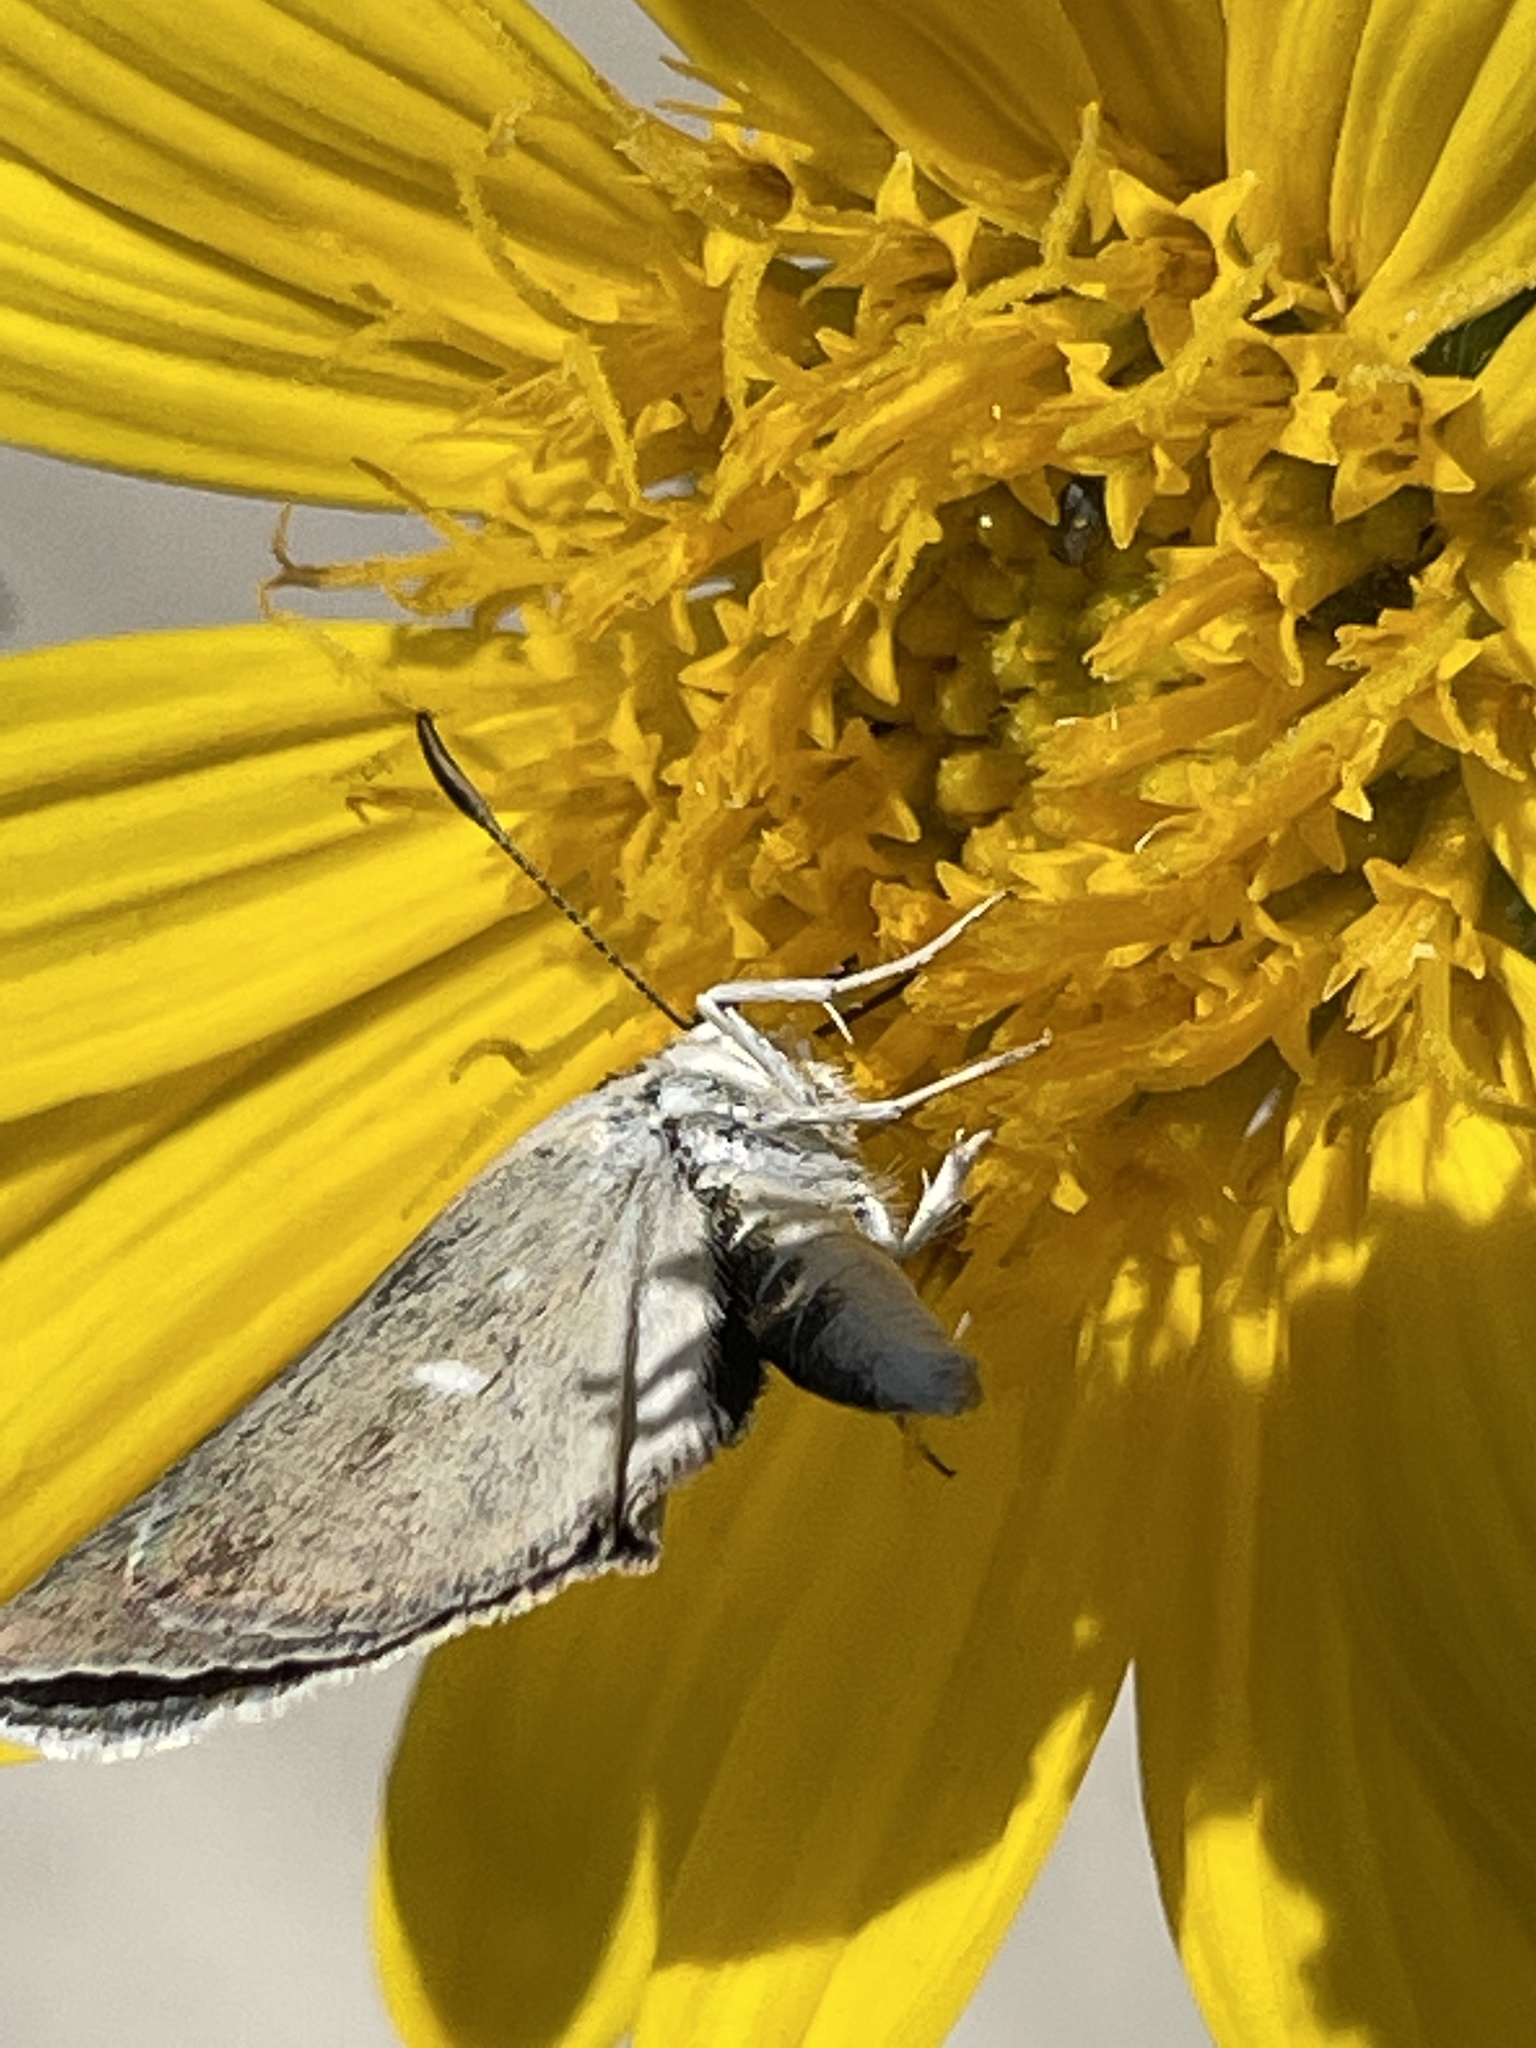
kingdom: Animalia
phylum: Arthropoda
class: Insecta
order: Lepidoptera
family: Hesperiidae
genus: Pholisora
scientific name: Pholisora libya
